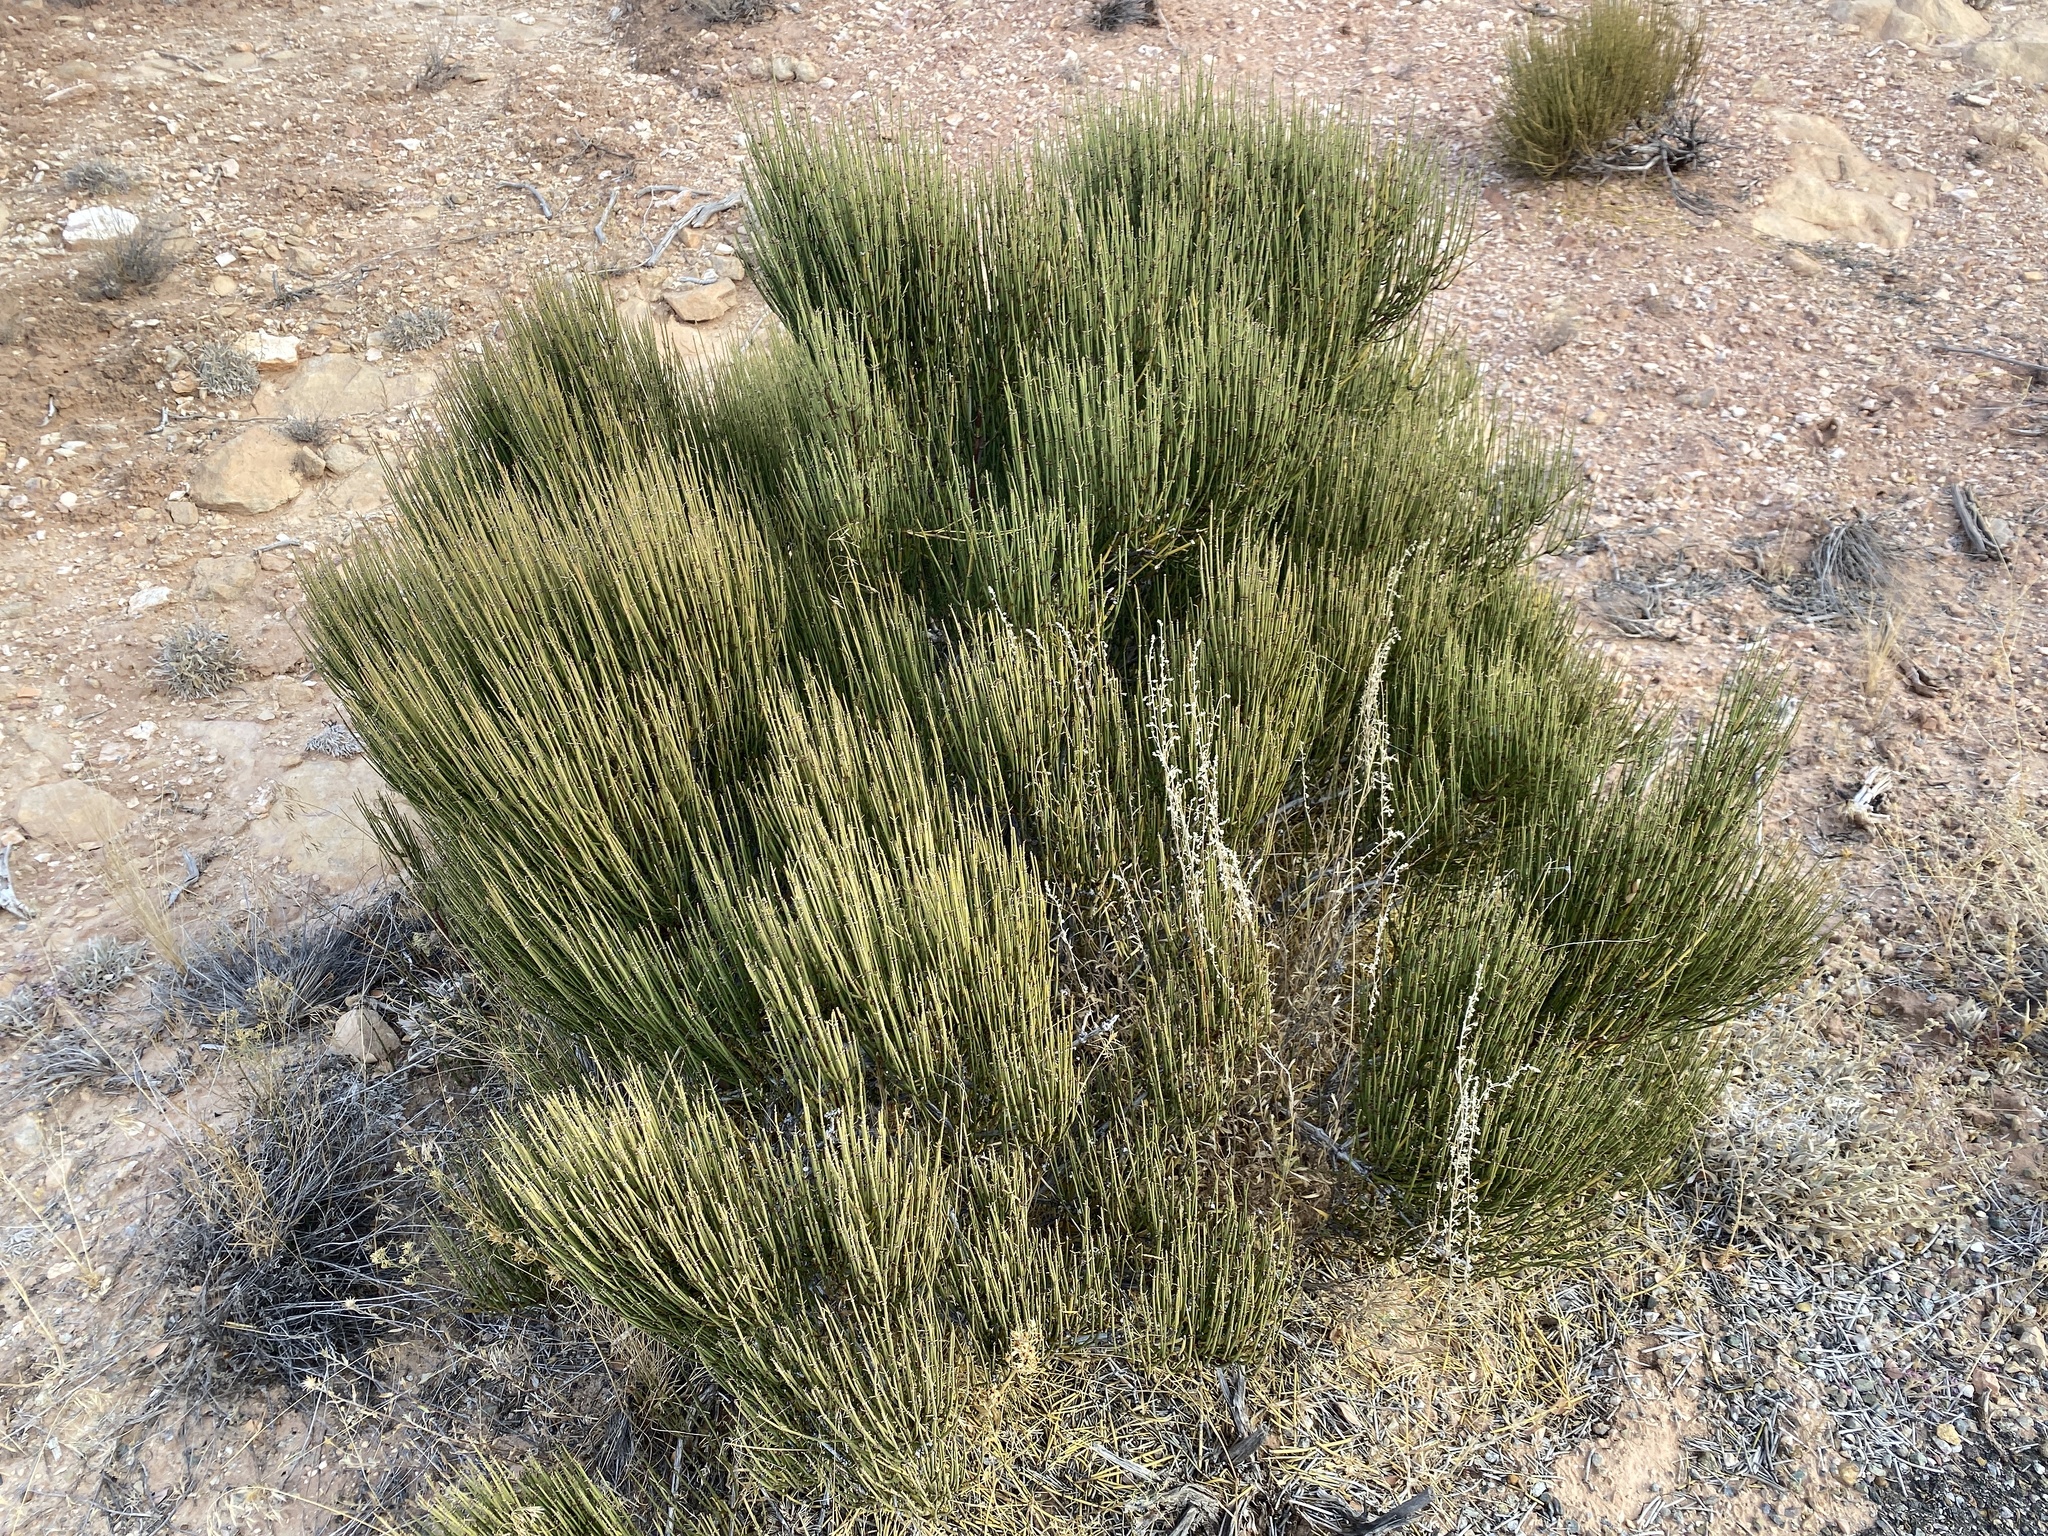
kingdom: Plantae
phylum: Tracheophyta
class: Gnetopsida
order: Ephedrales
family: Ephedraceae
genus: Ephedra
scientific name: Ephedra viridis
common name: Green ephedra
